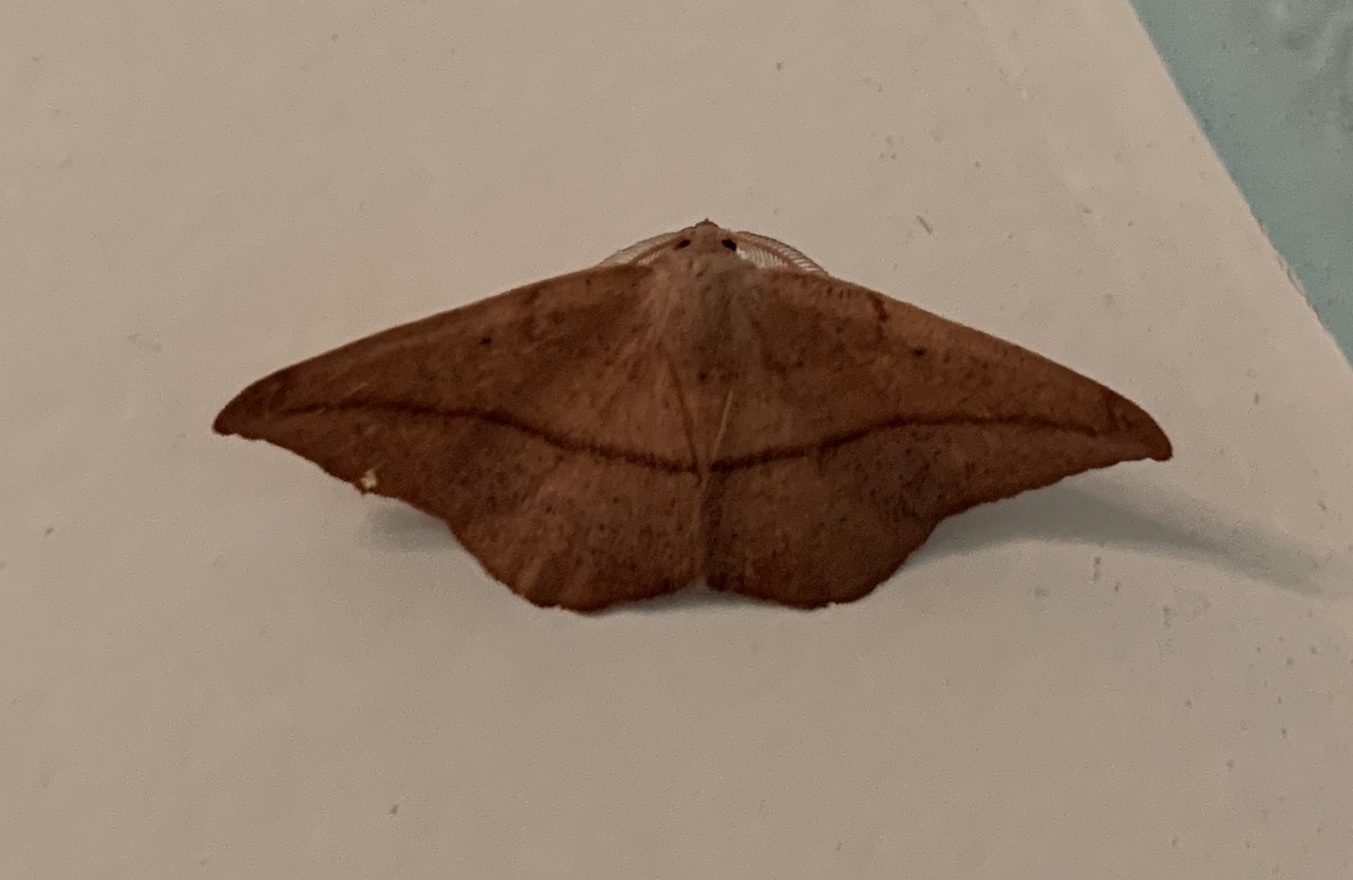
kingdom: Animalia
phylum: Arthropoda
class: Insecta
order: Lepidoptera
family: Geometridae
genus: Patalene
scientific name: Patalene olyzonaria
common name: Juniper geometer moth
